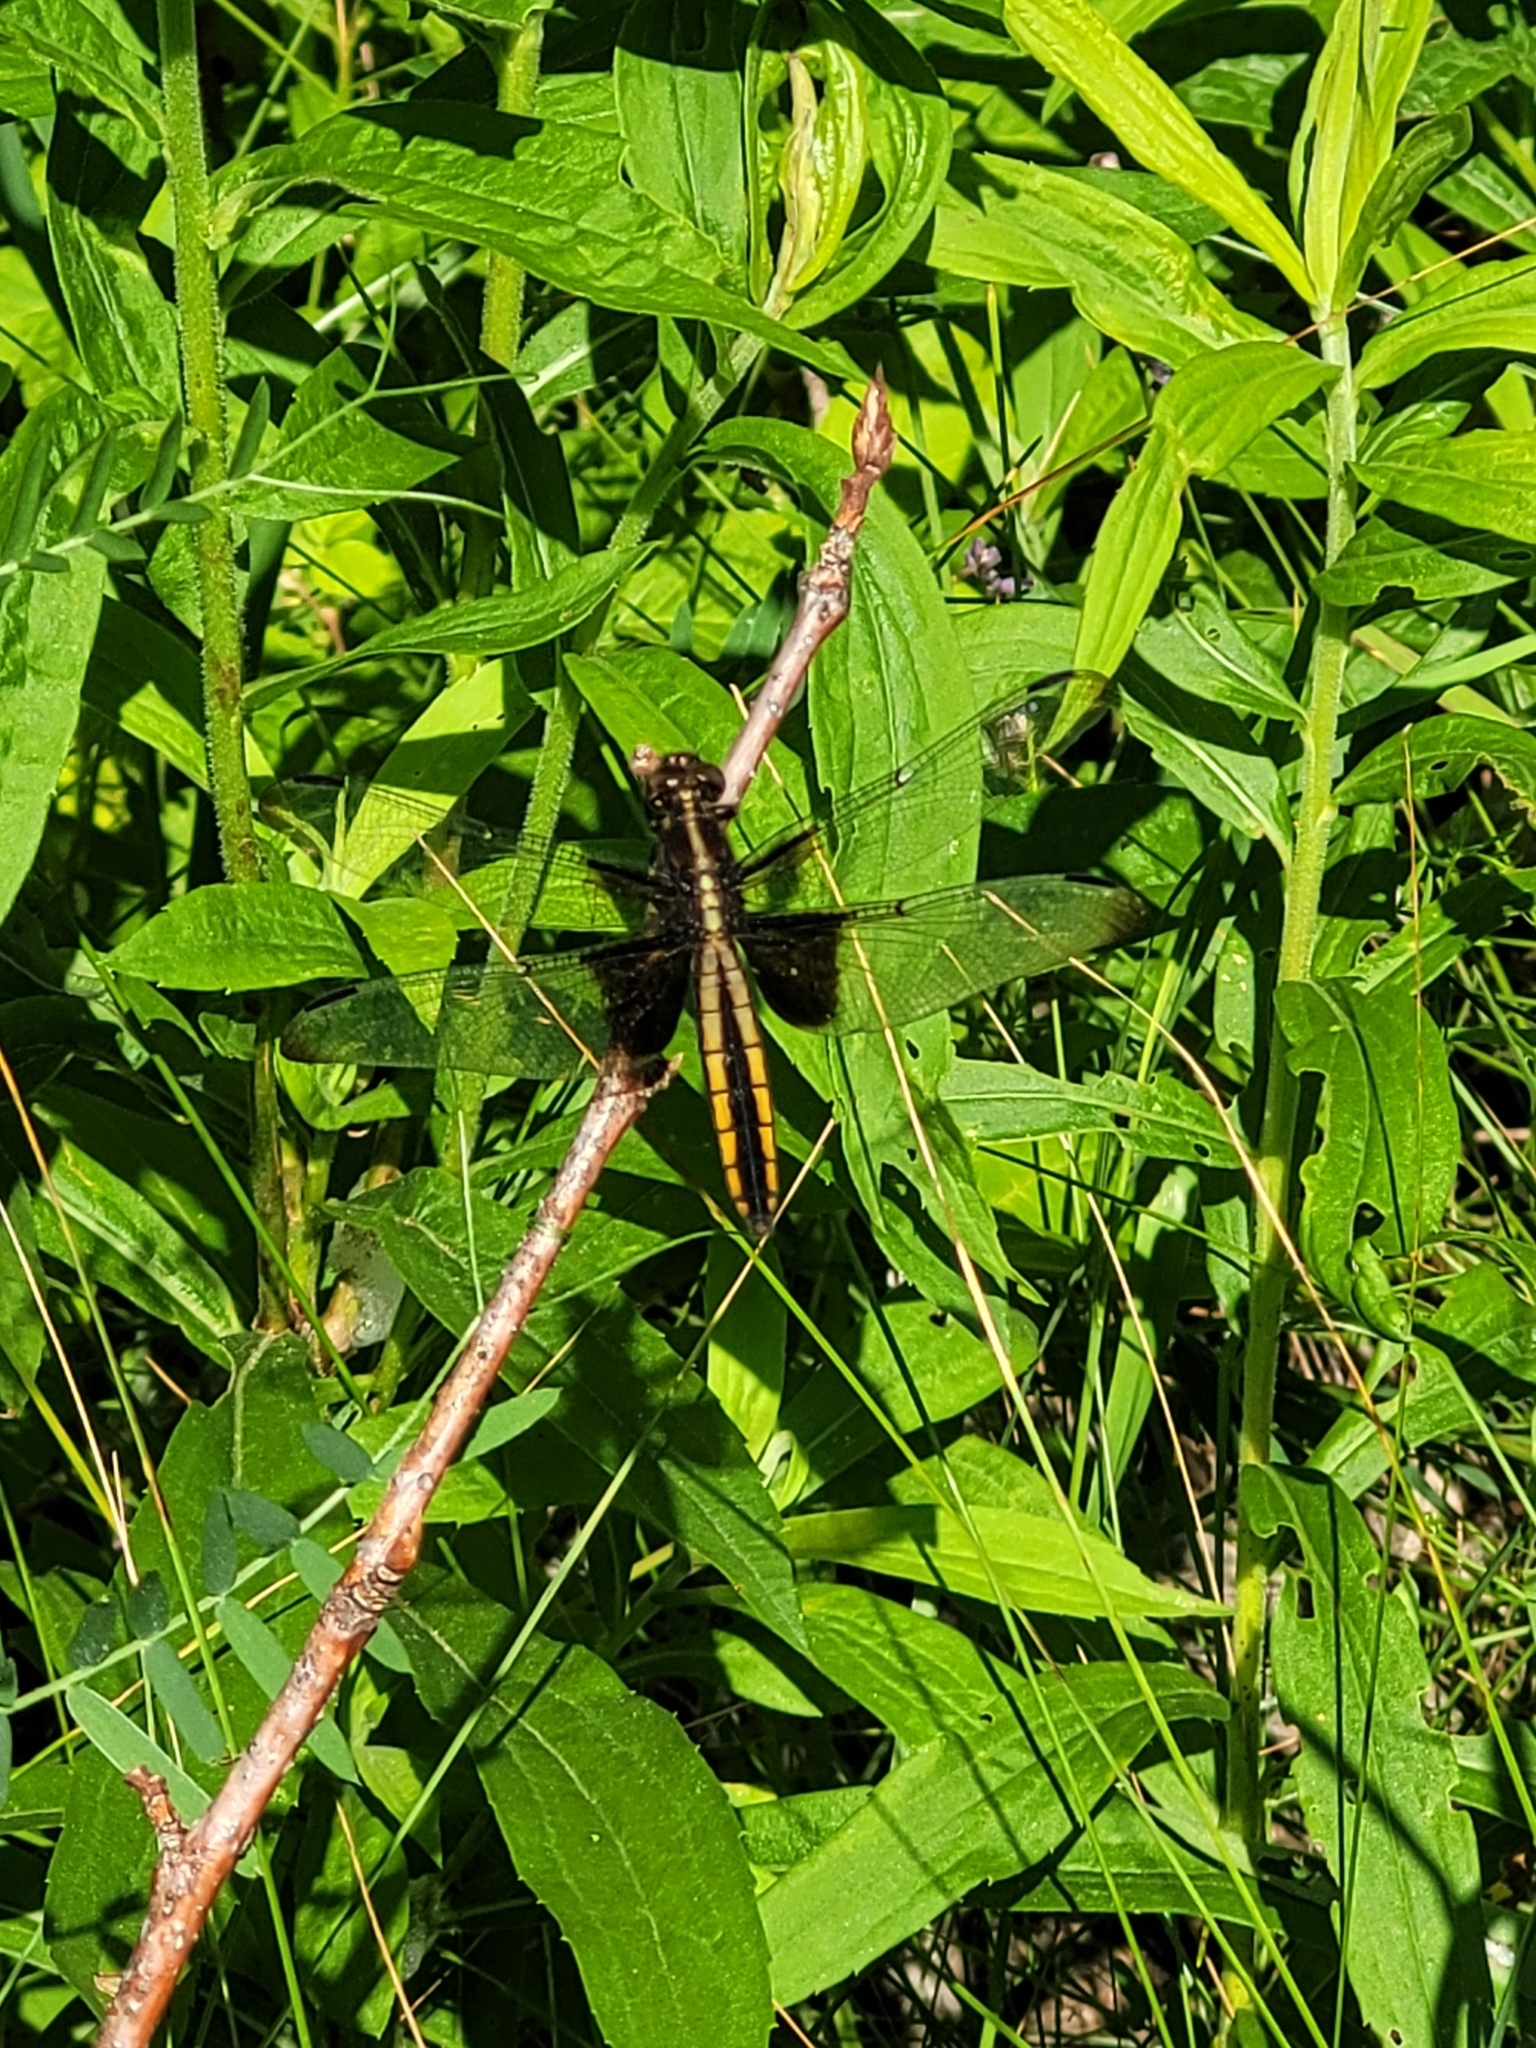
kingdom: Animalia
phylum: Arthropoda
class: Insecta
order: Odonata
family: Libellulidae
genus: Libellula
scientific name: Libellula luctuosa
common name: Widow skimmer
